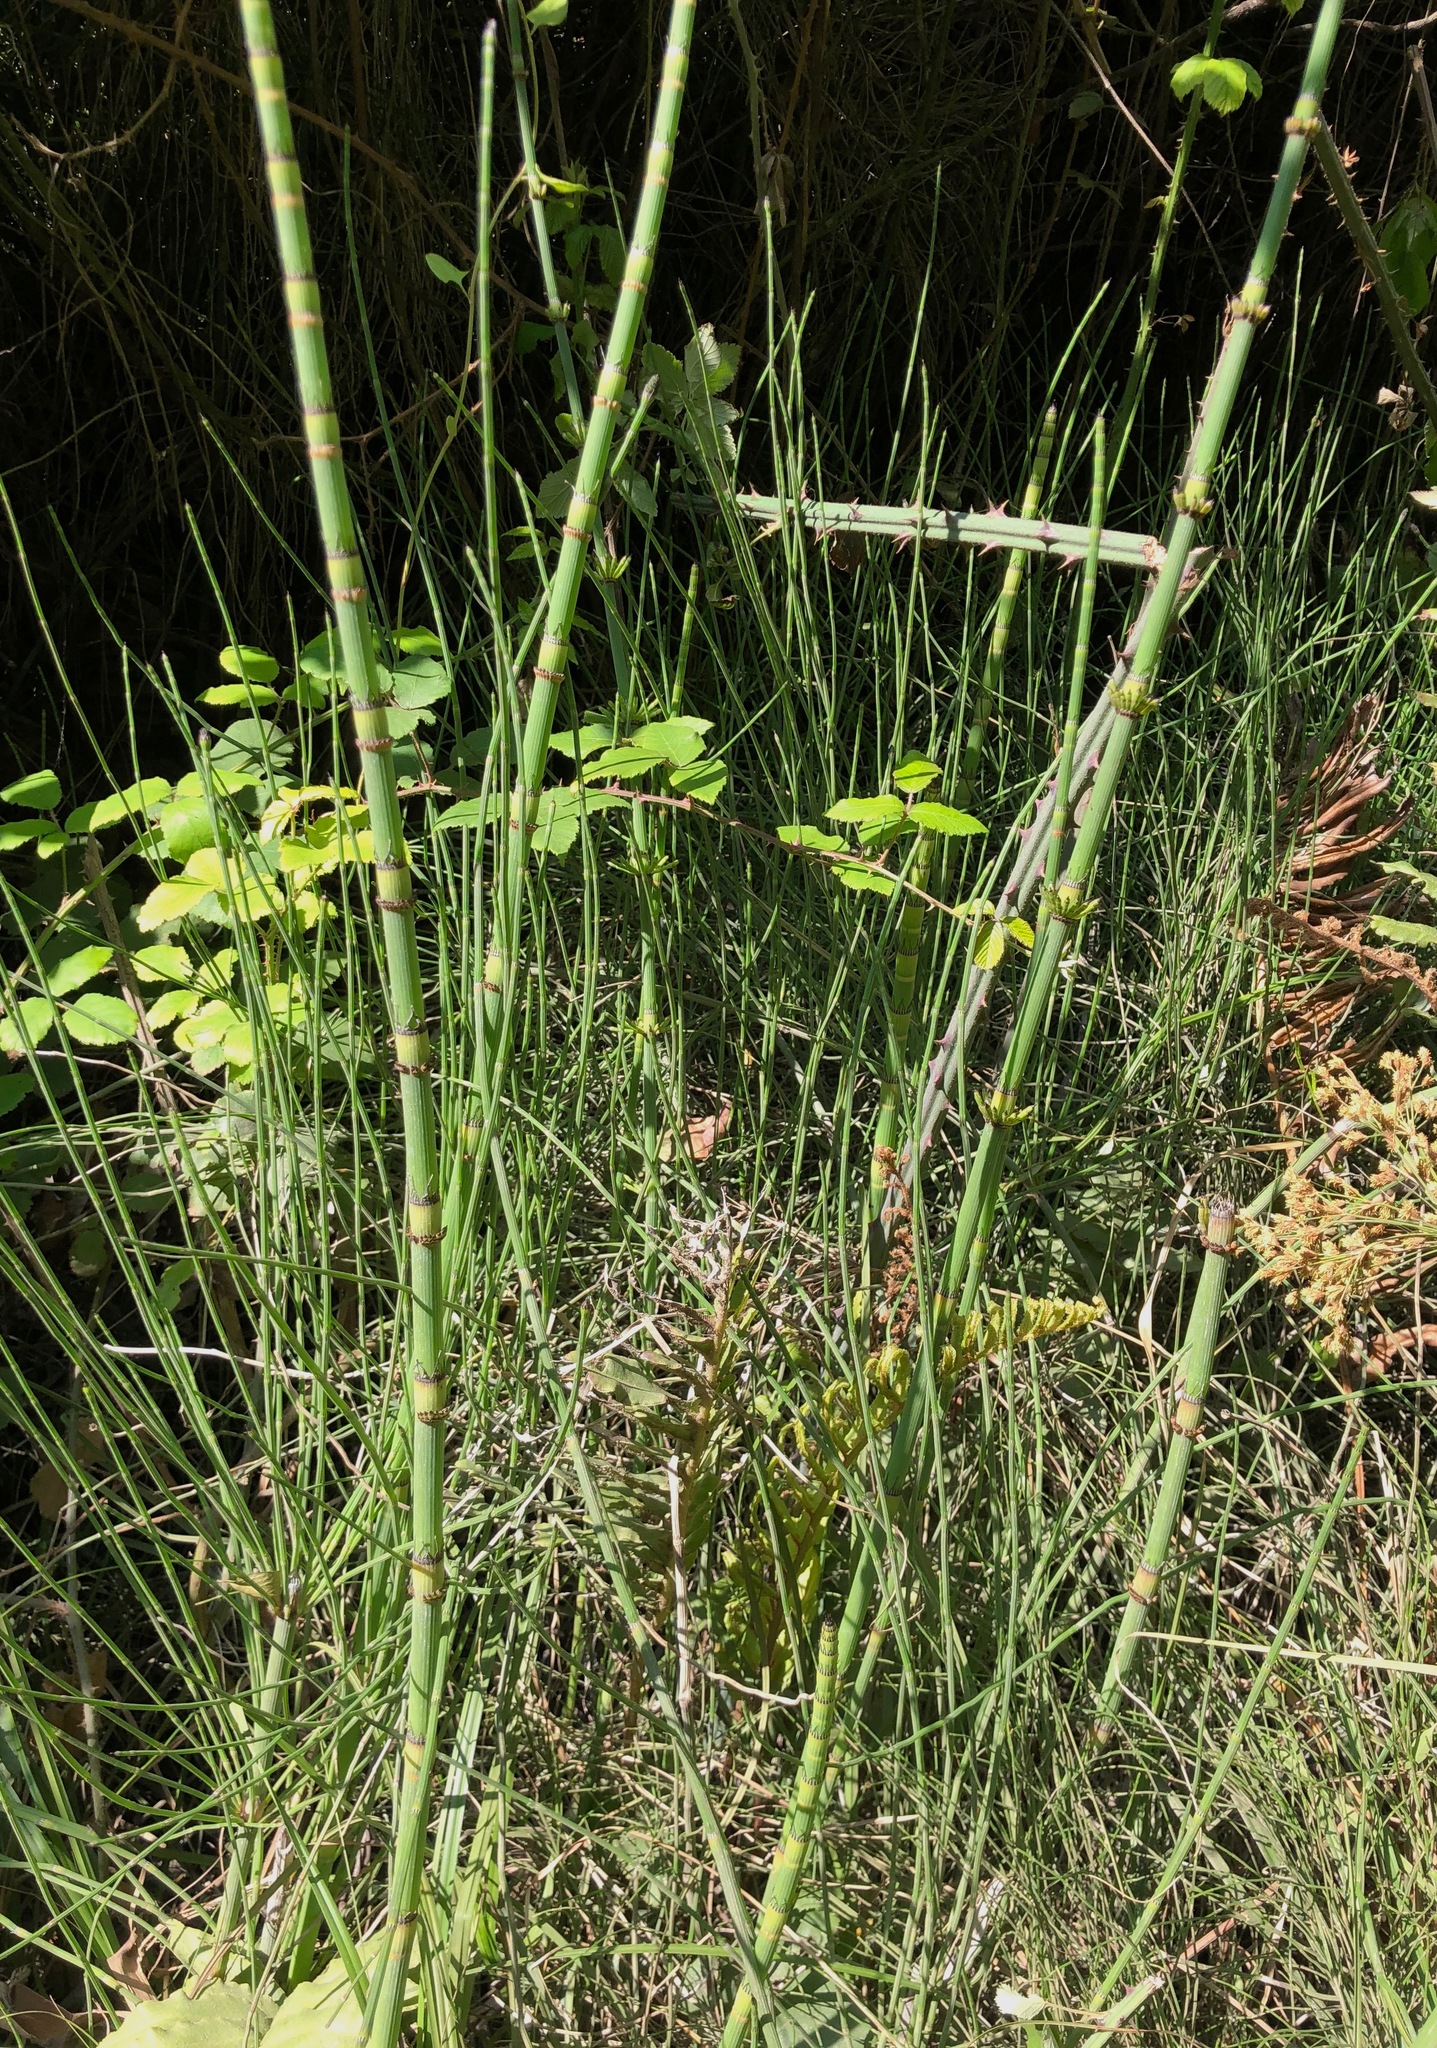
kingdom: Plantae
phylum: Tracheophyta
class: Polypodiopsida
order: Equisetales
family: Equisetaceae
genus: Equisetum
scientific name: Equisetum giganteum
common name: Giant horsetail
